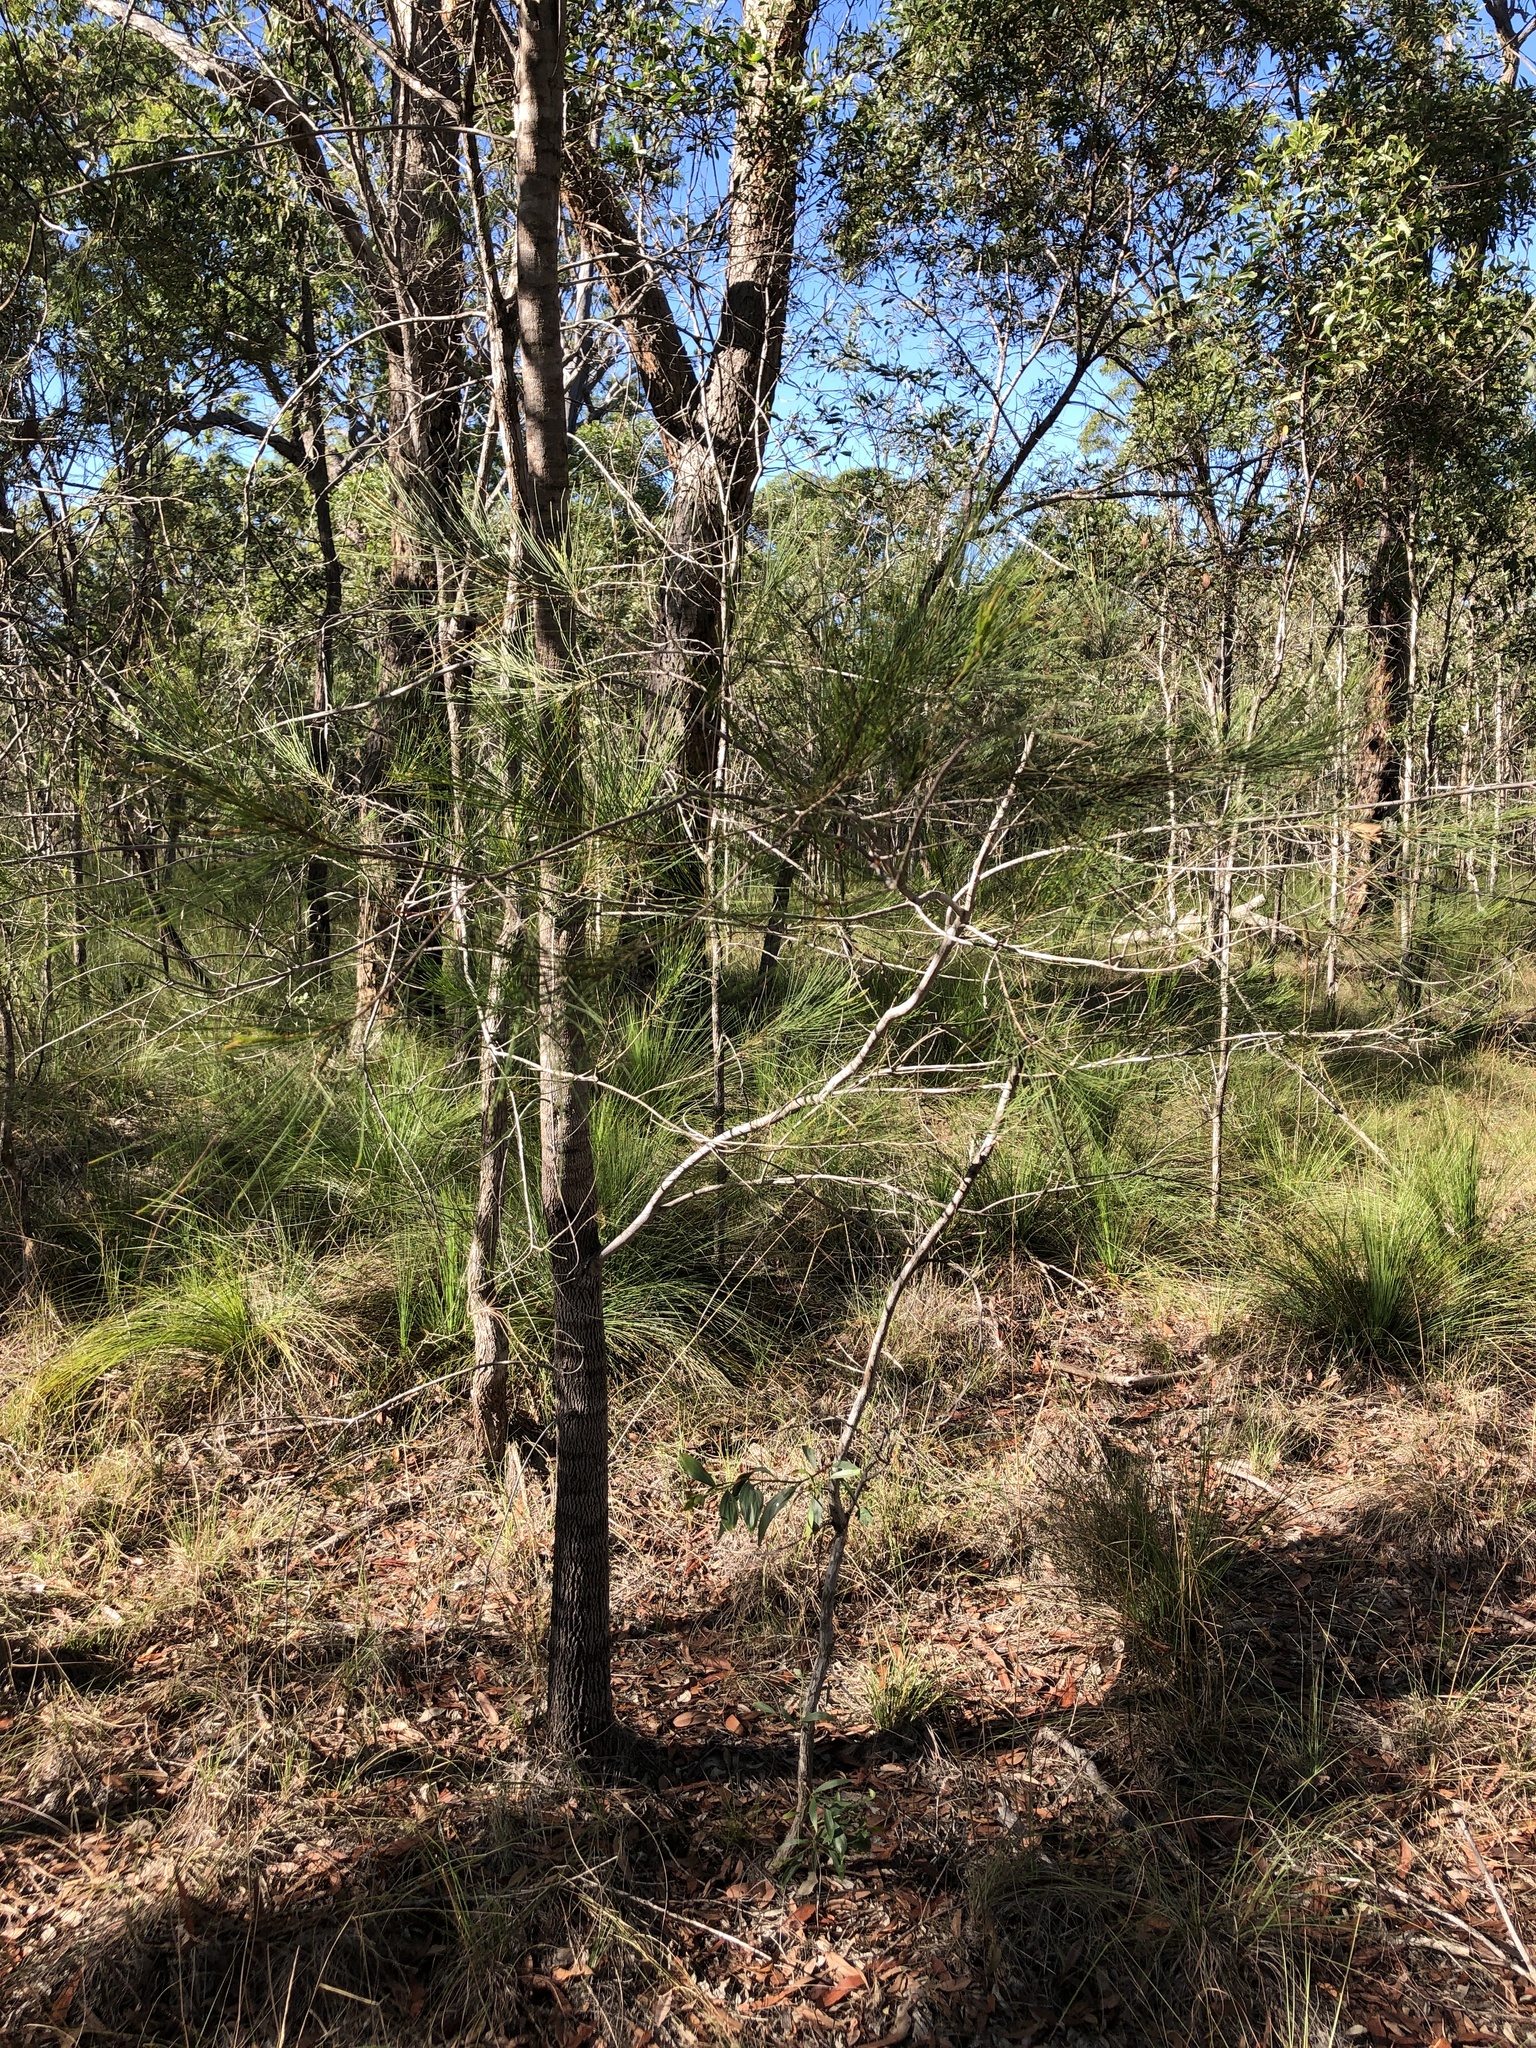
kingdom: Plantae
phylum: Tracheophyta
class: Magnoliopsida
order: Fagales
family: Casuarinaceae
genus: Allocasuarina
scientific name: Allocasuarina littoralis
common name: Black she-oak
